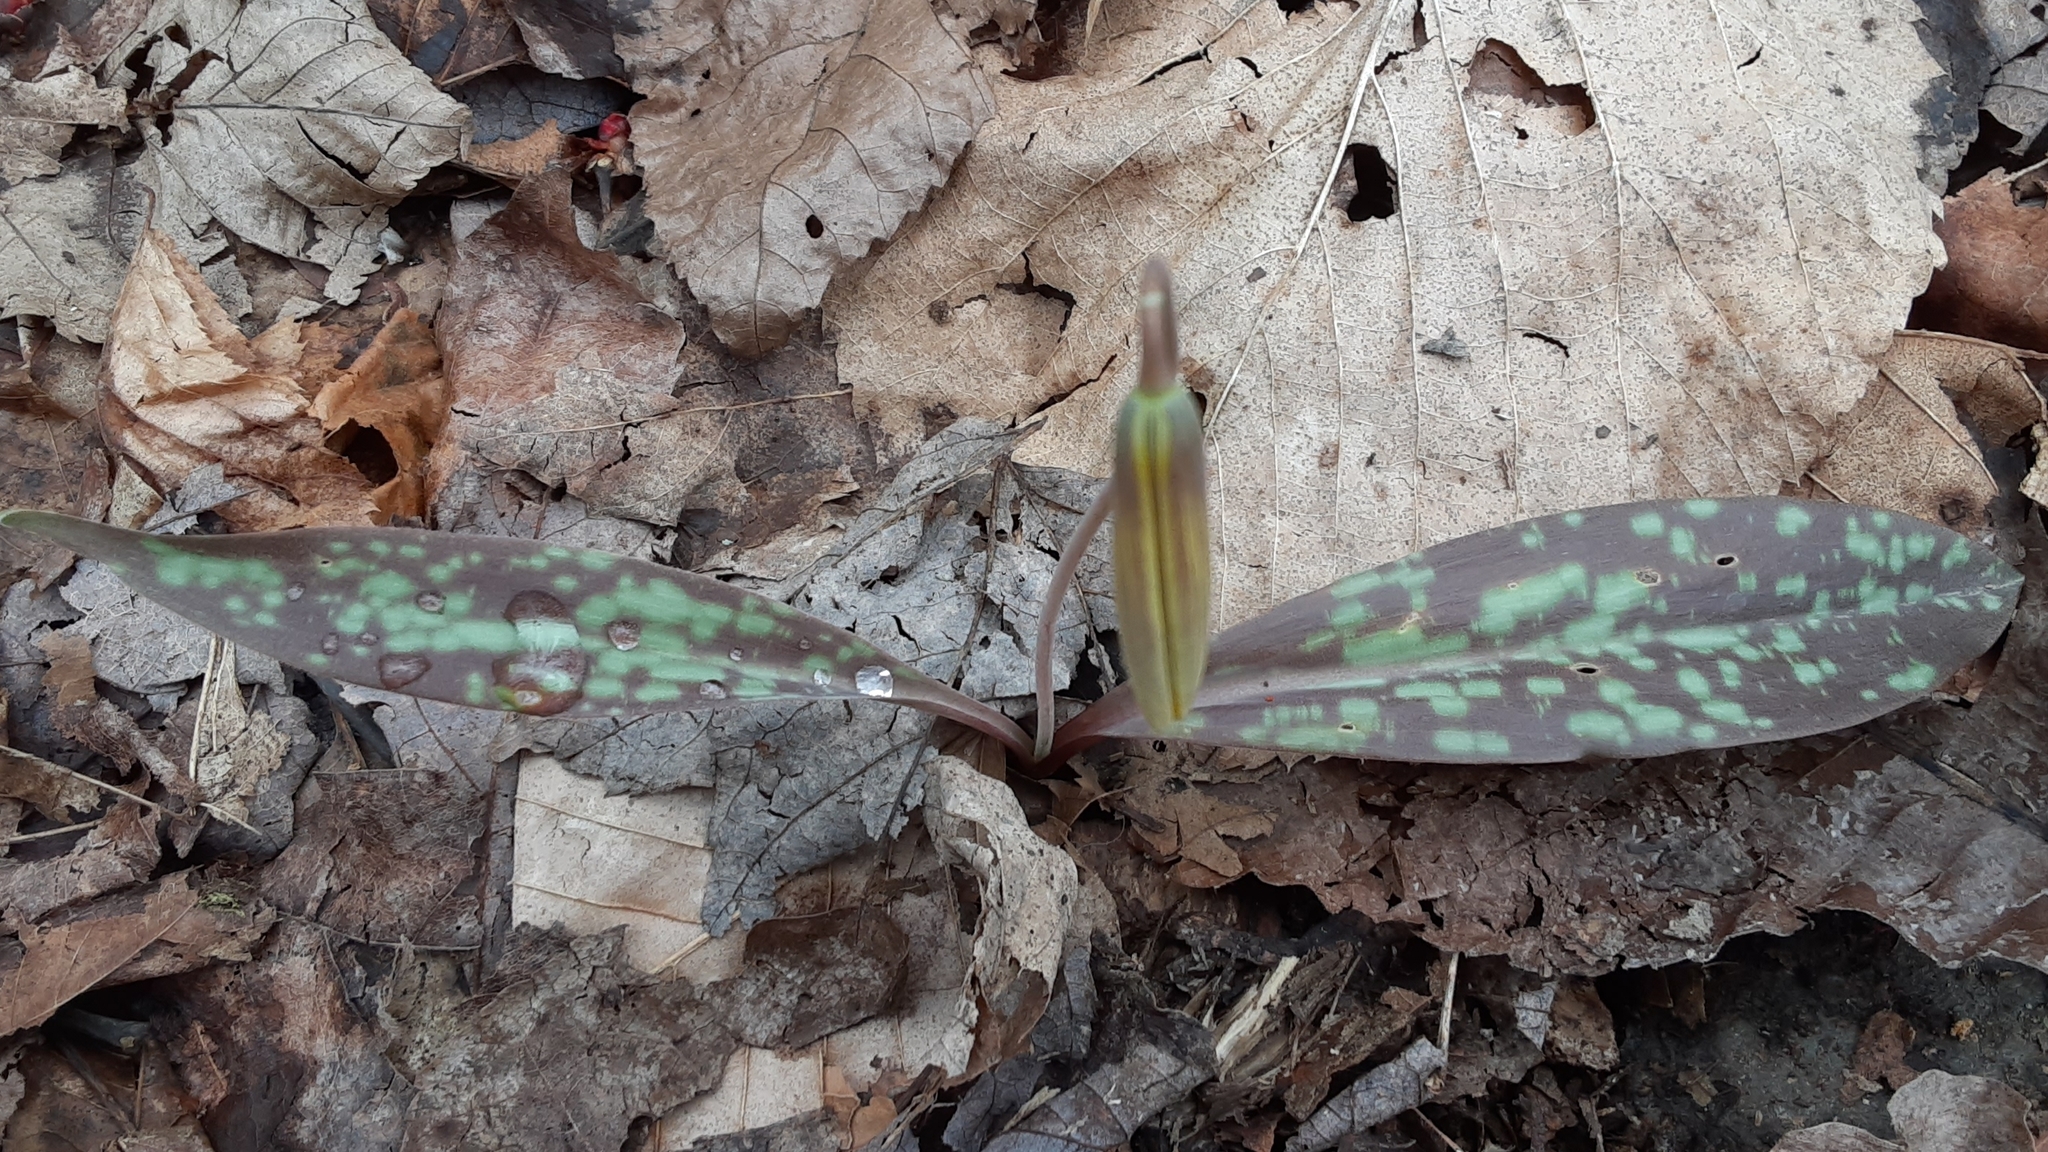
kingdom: Plantae
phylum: Tracheophyta
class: Liliopsida
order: Liliales
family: Liliaceae
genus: Erythronium
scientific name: Erythronium americanum
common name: Yellow adder's-tongue
